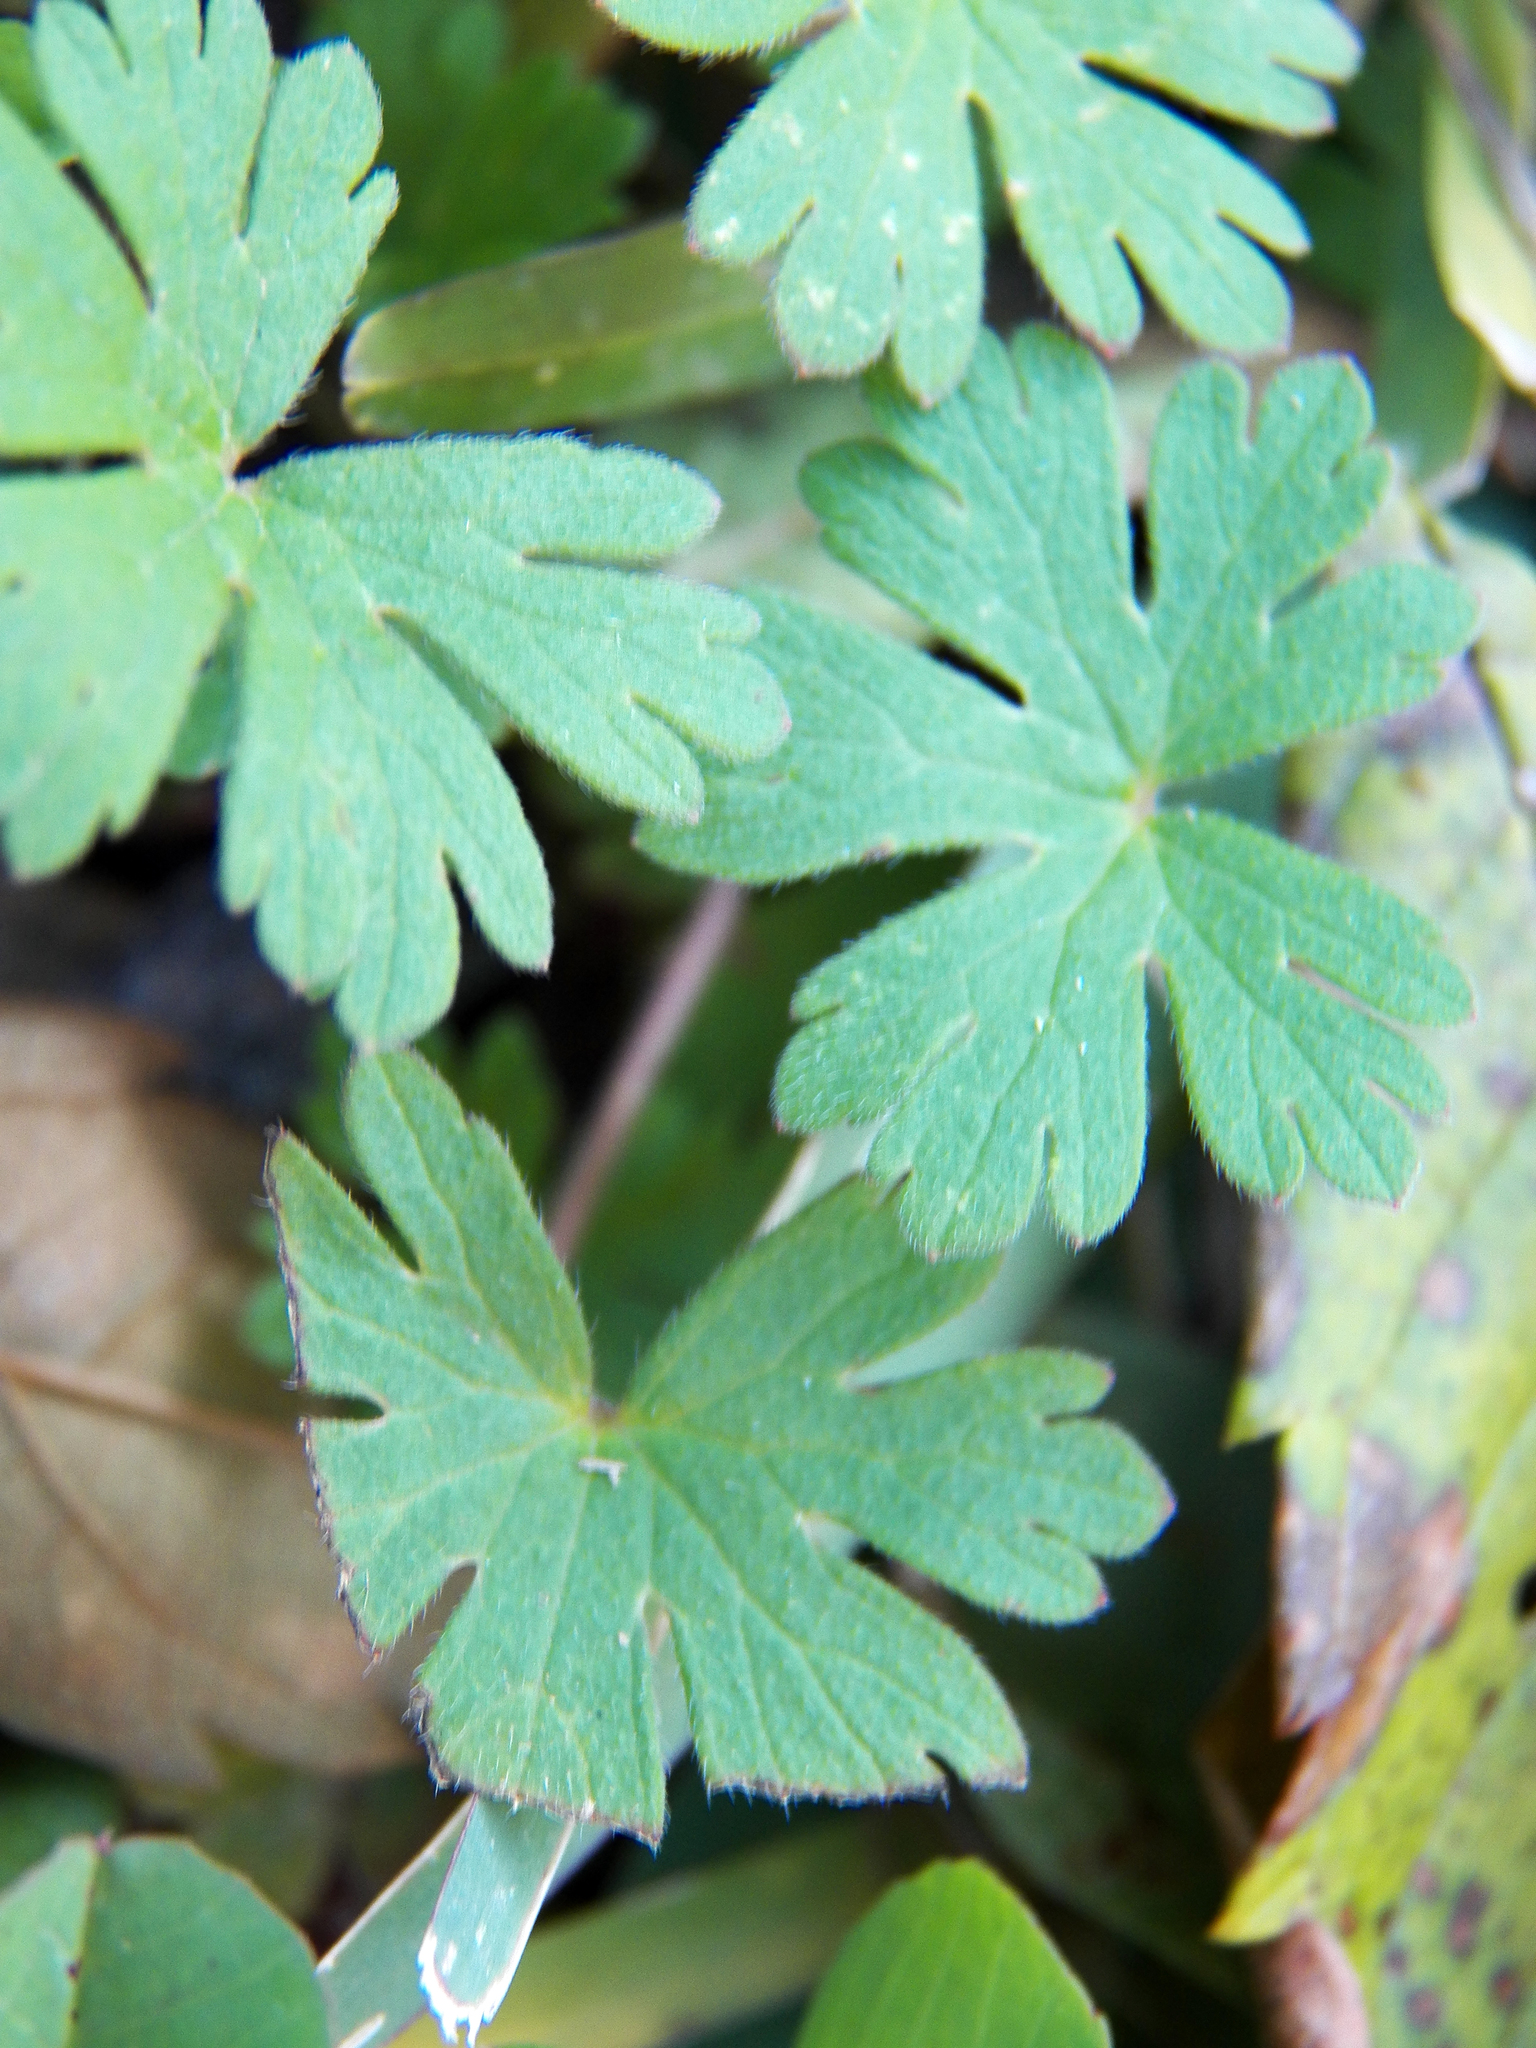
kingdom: Plantae
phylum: Tracheophyta
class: Magnoliopsida
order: Geraniales
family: Geraniaceae
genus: Geranium
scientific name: Geranium carolinianum
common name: Carolina crane's-bill
